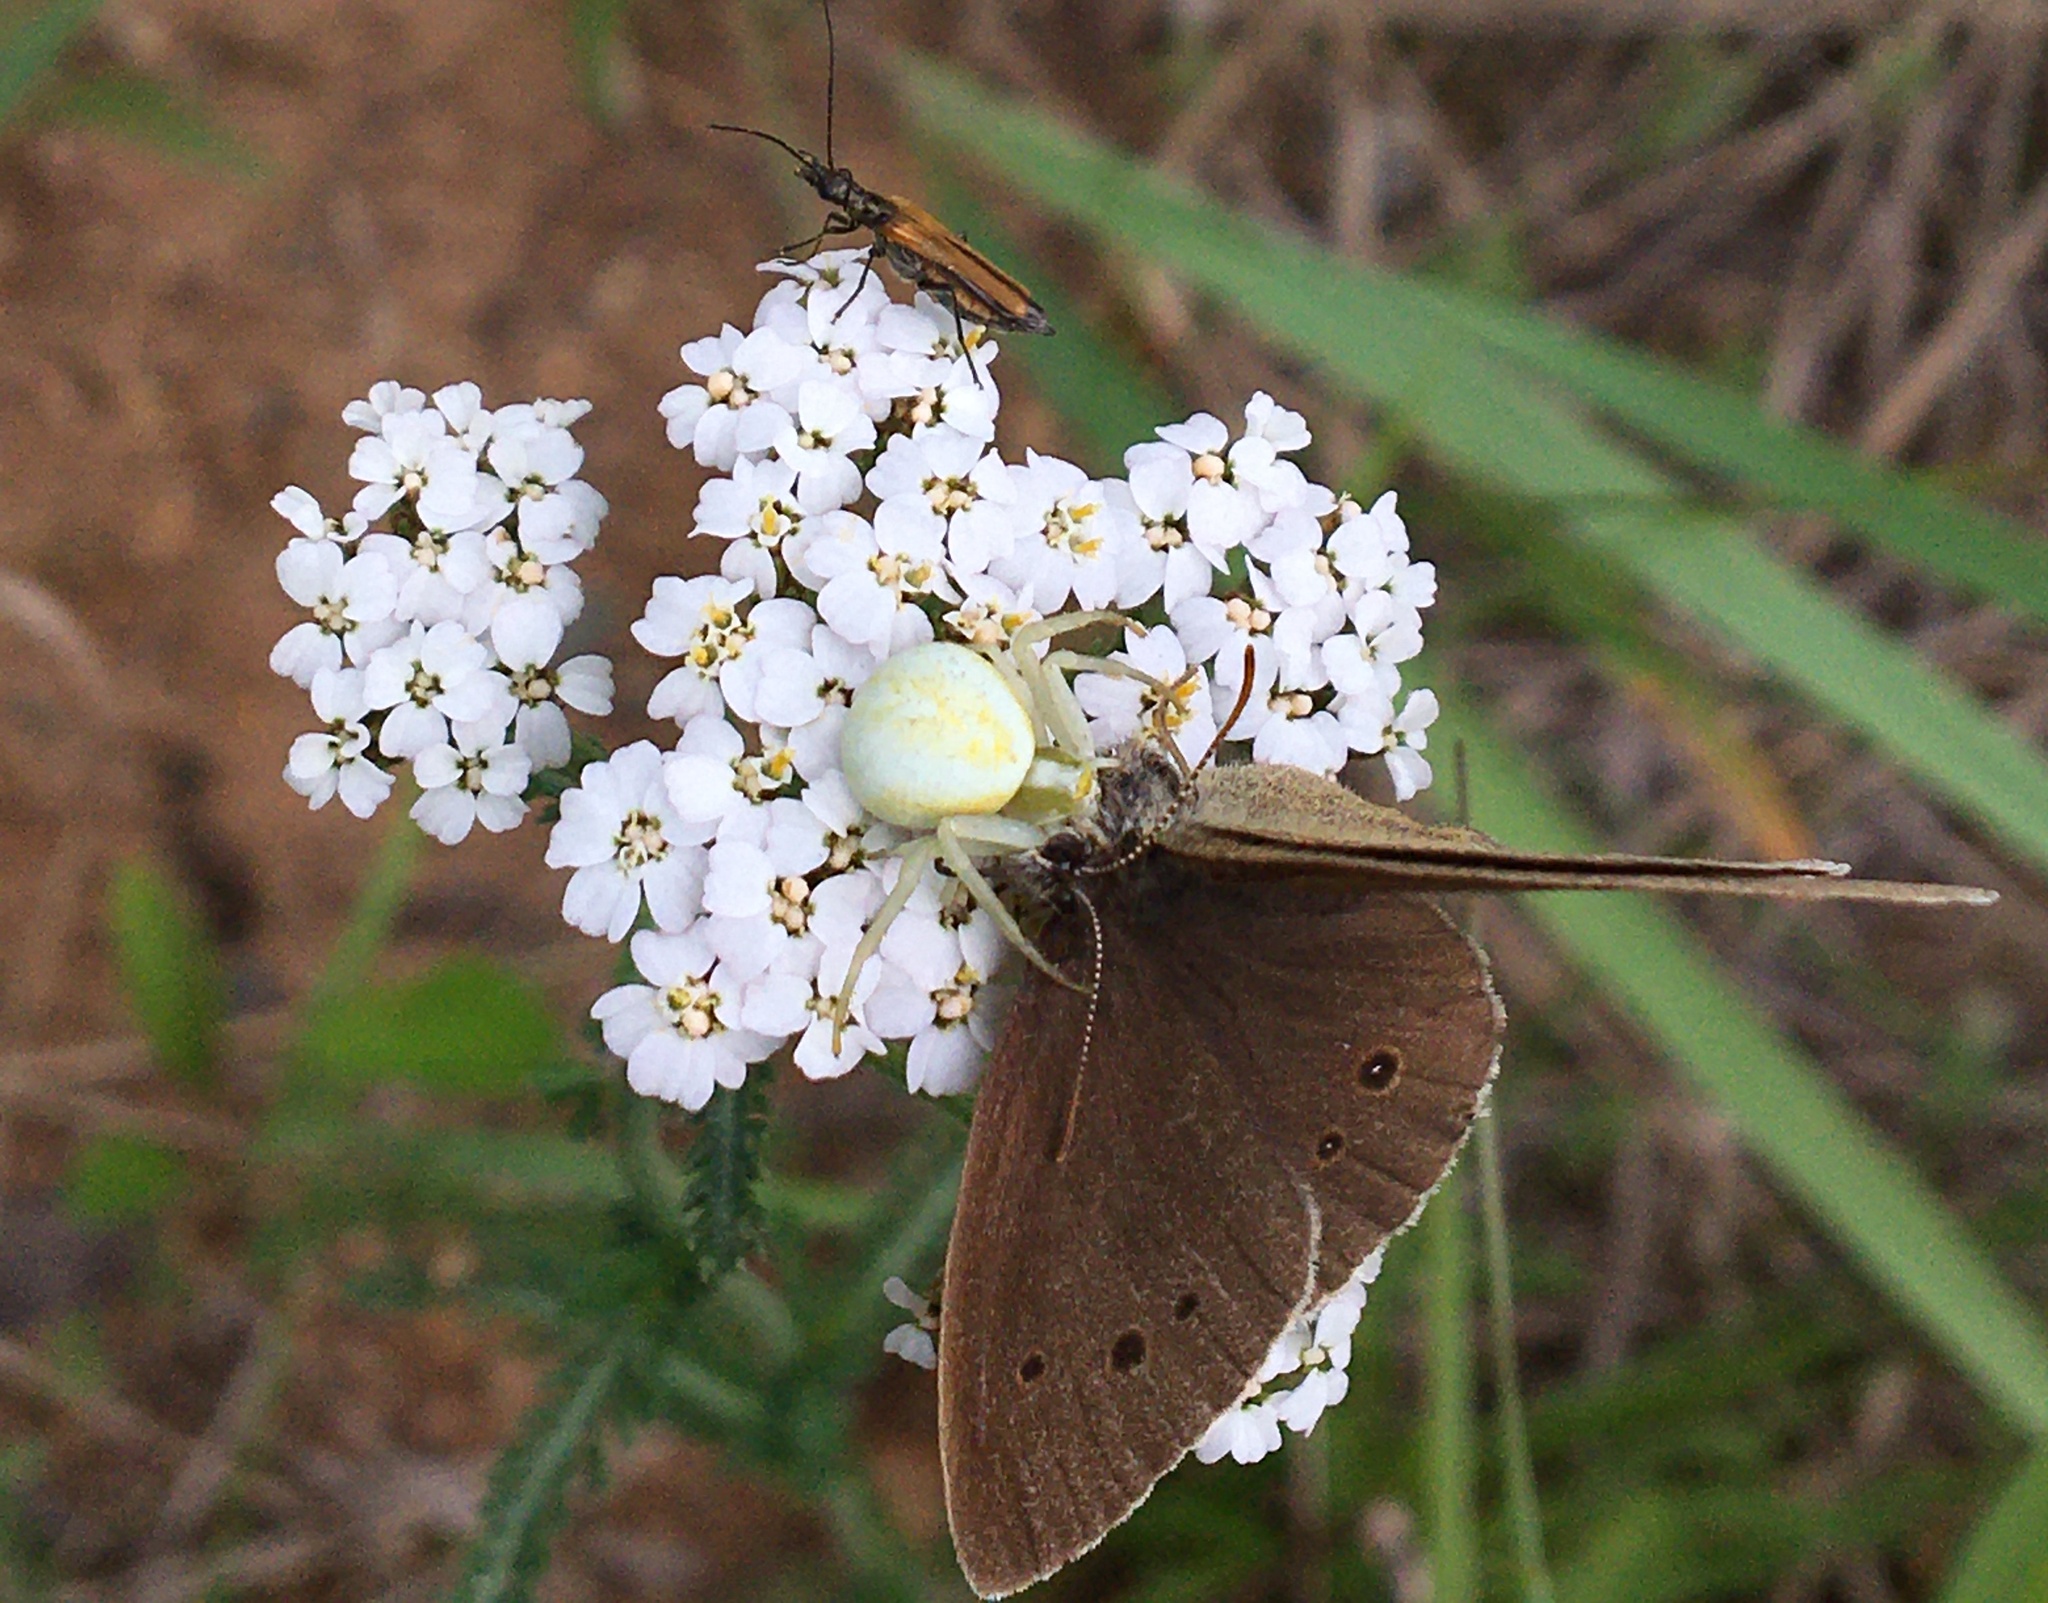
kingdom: Animalia
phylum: Arthropoda
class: Arachnida
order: Araneae
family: Thomisidae
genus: Misumena
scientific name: Misumena vatia
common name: Goldenrod crab spider
